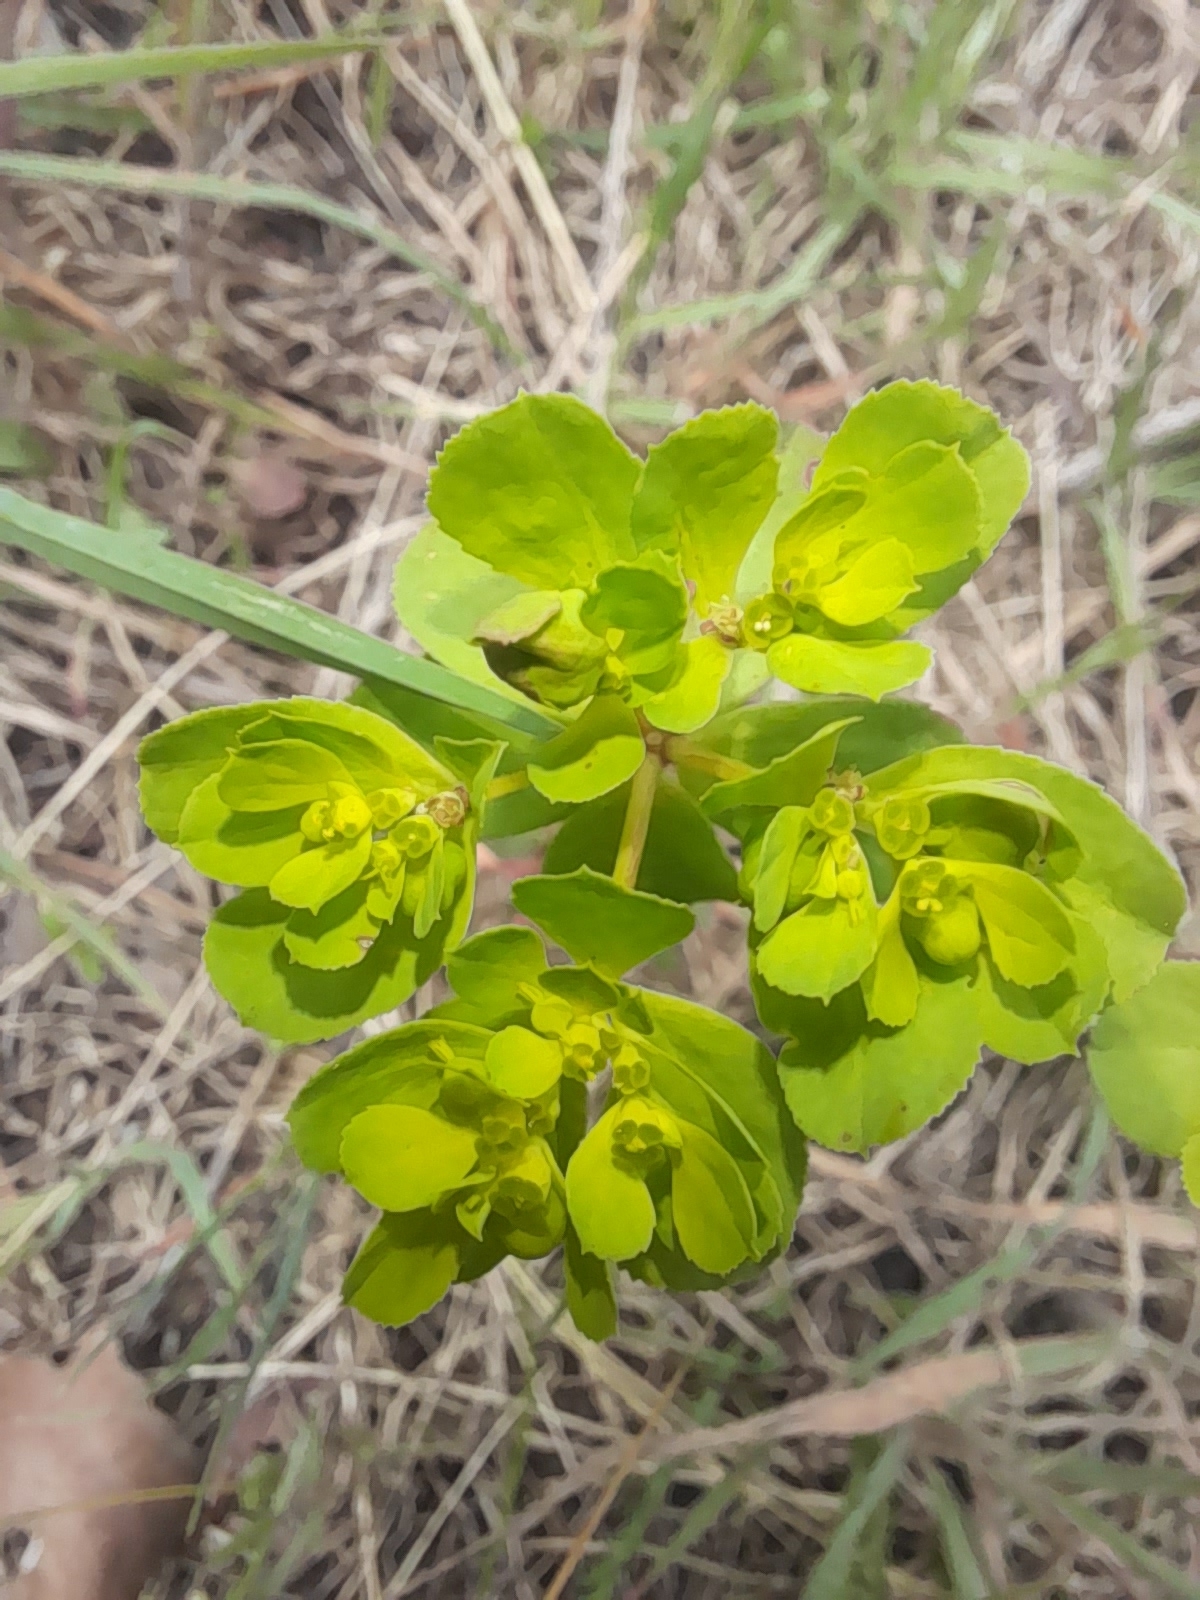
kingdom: Plantae
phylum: Tracheophyta
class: Magnoliopsida
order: Malpighiales
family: Euphorbiaceae
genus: Euphorbia
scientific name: Euphorbia helioscopia
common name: Sun spurge
